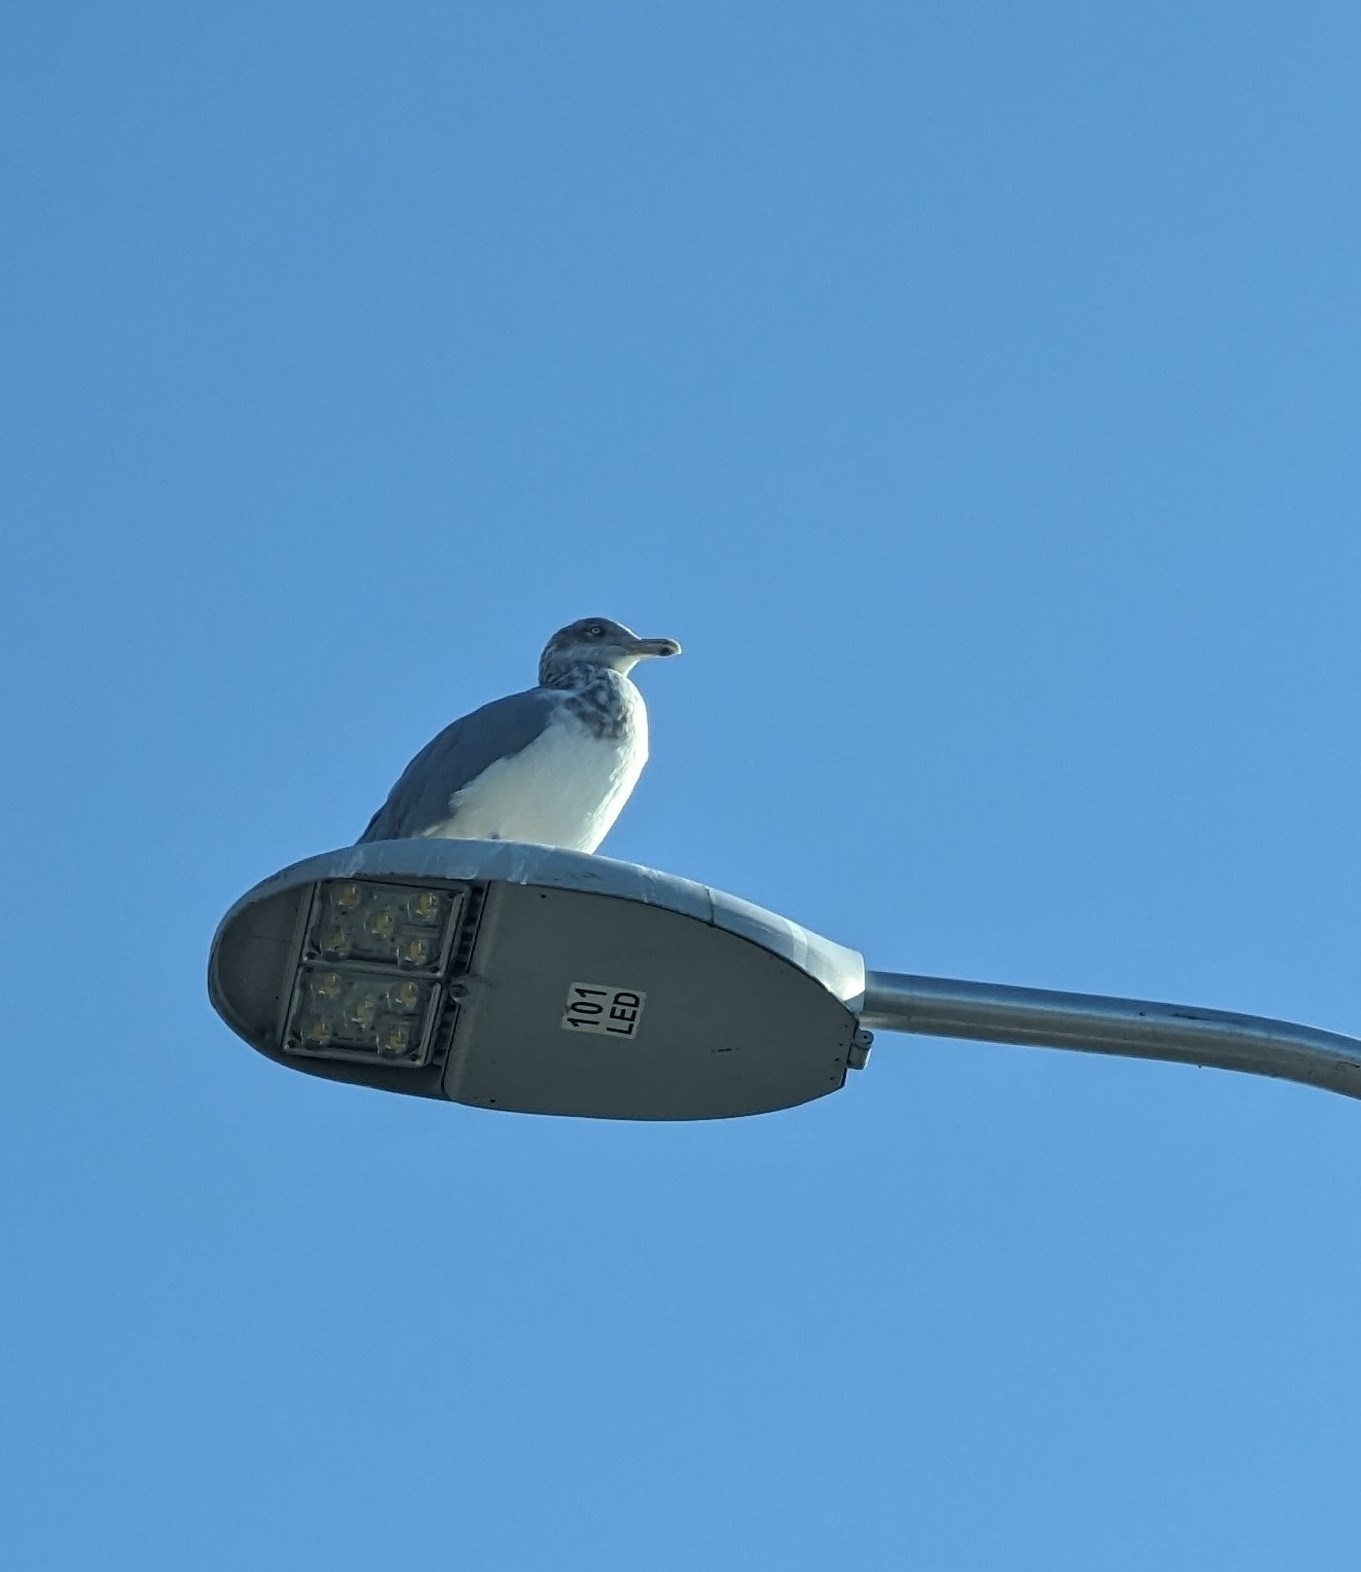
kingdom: Animalia
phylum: Chordata
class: Aves
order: Charadriiformes
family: Laridae
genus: Larus
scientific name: Larus smithsonianus
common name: American herring gull
